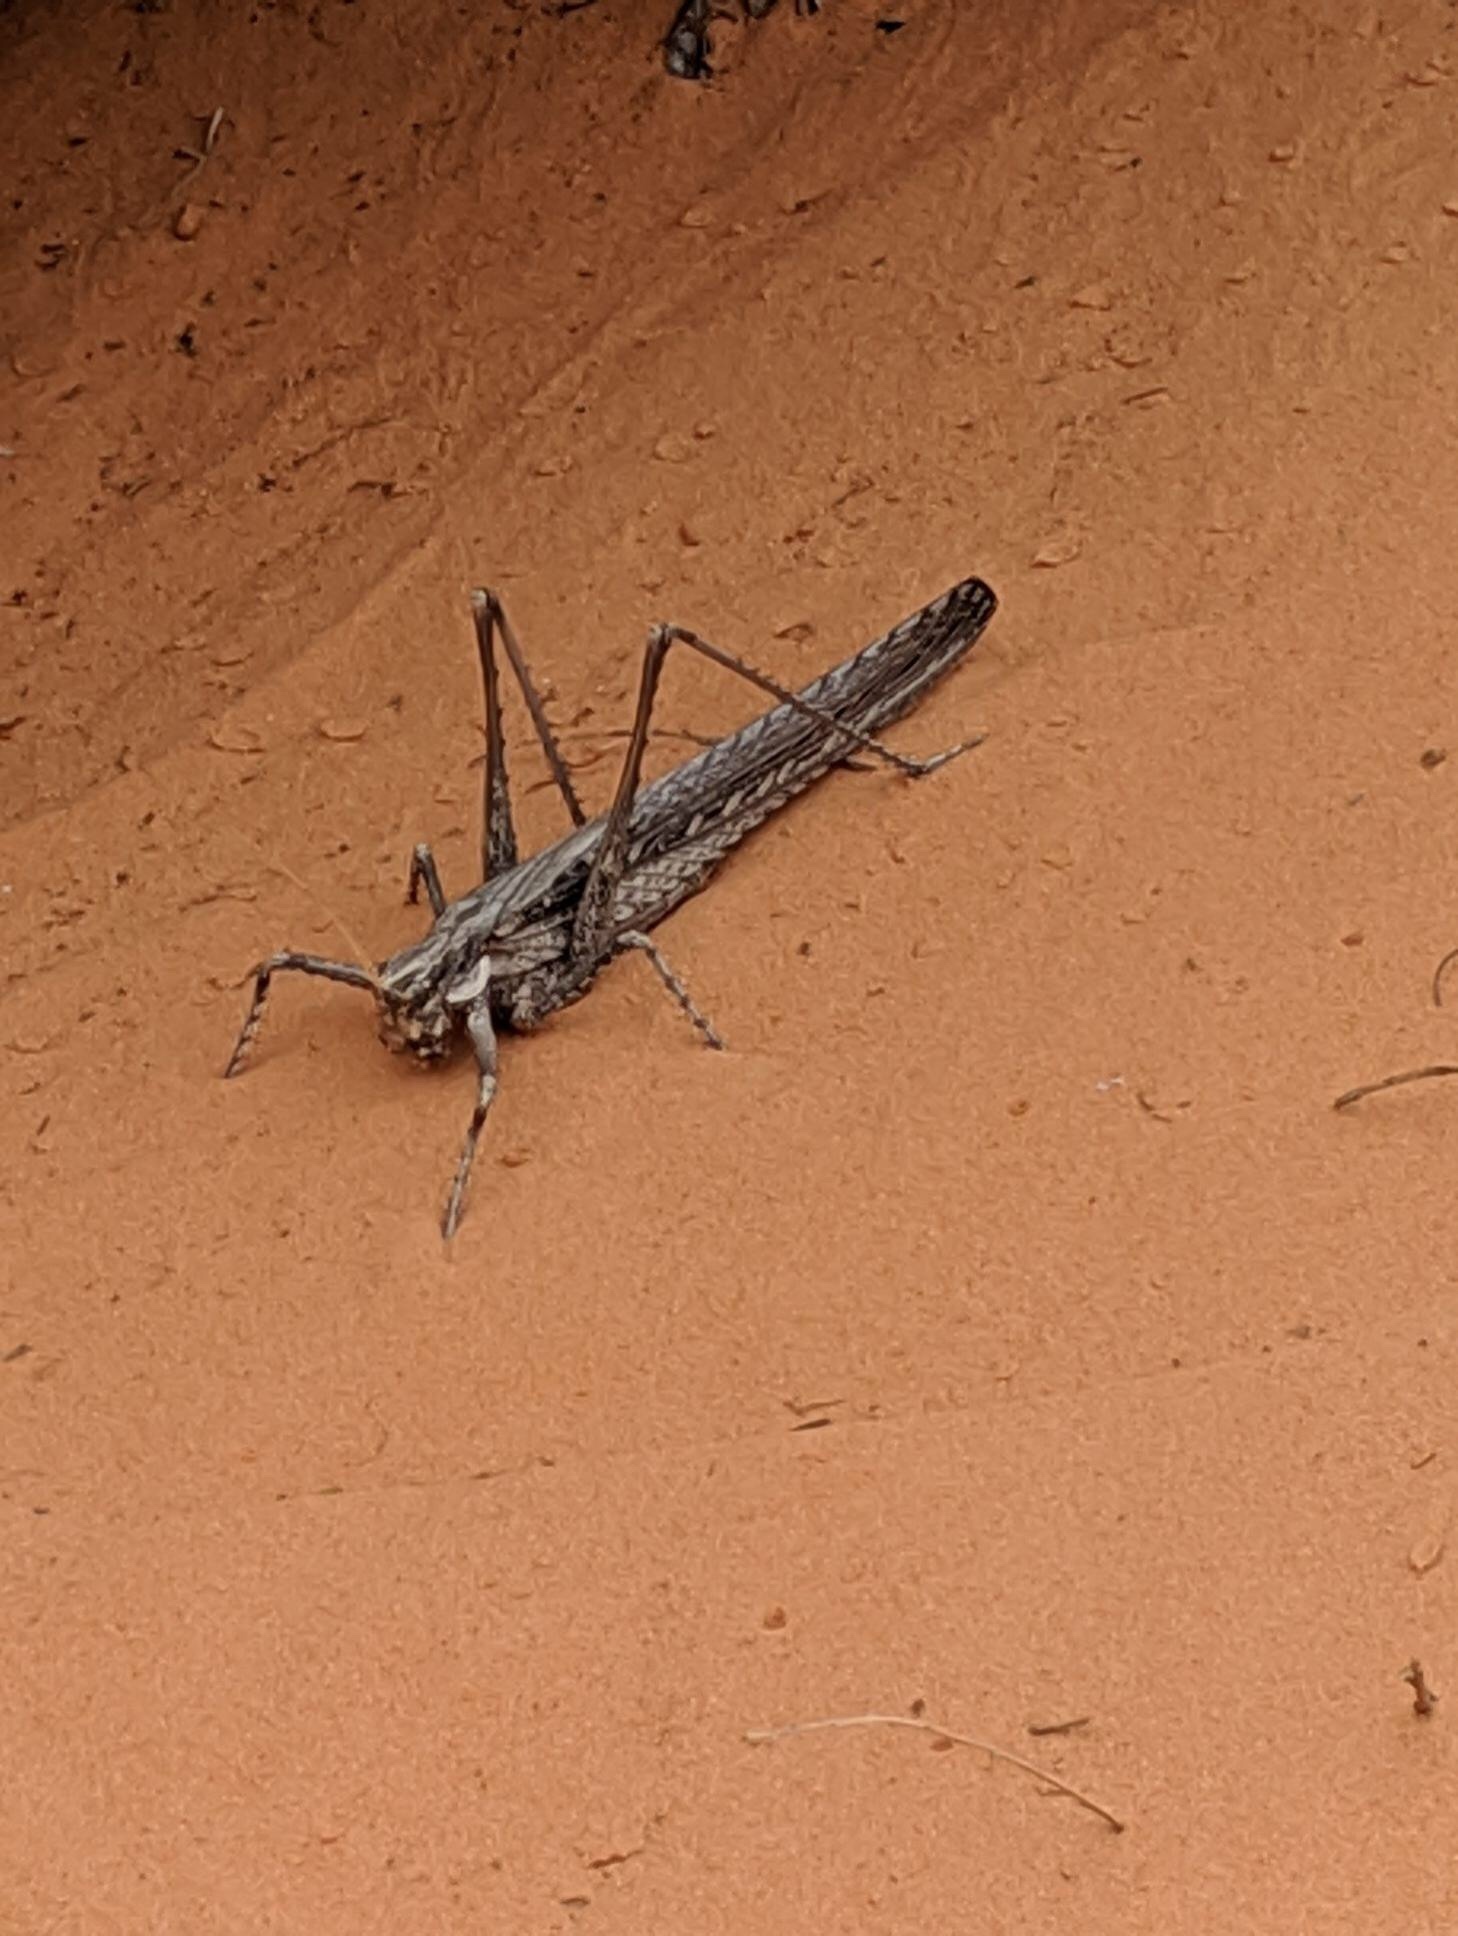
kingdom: Animalia
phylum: Arthropoda
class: Insecta
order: Orthoptera
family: Tettigoniidae
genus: Capnobotes
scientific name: Capnobotes fuliginosus
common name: Sooty longwing
